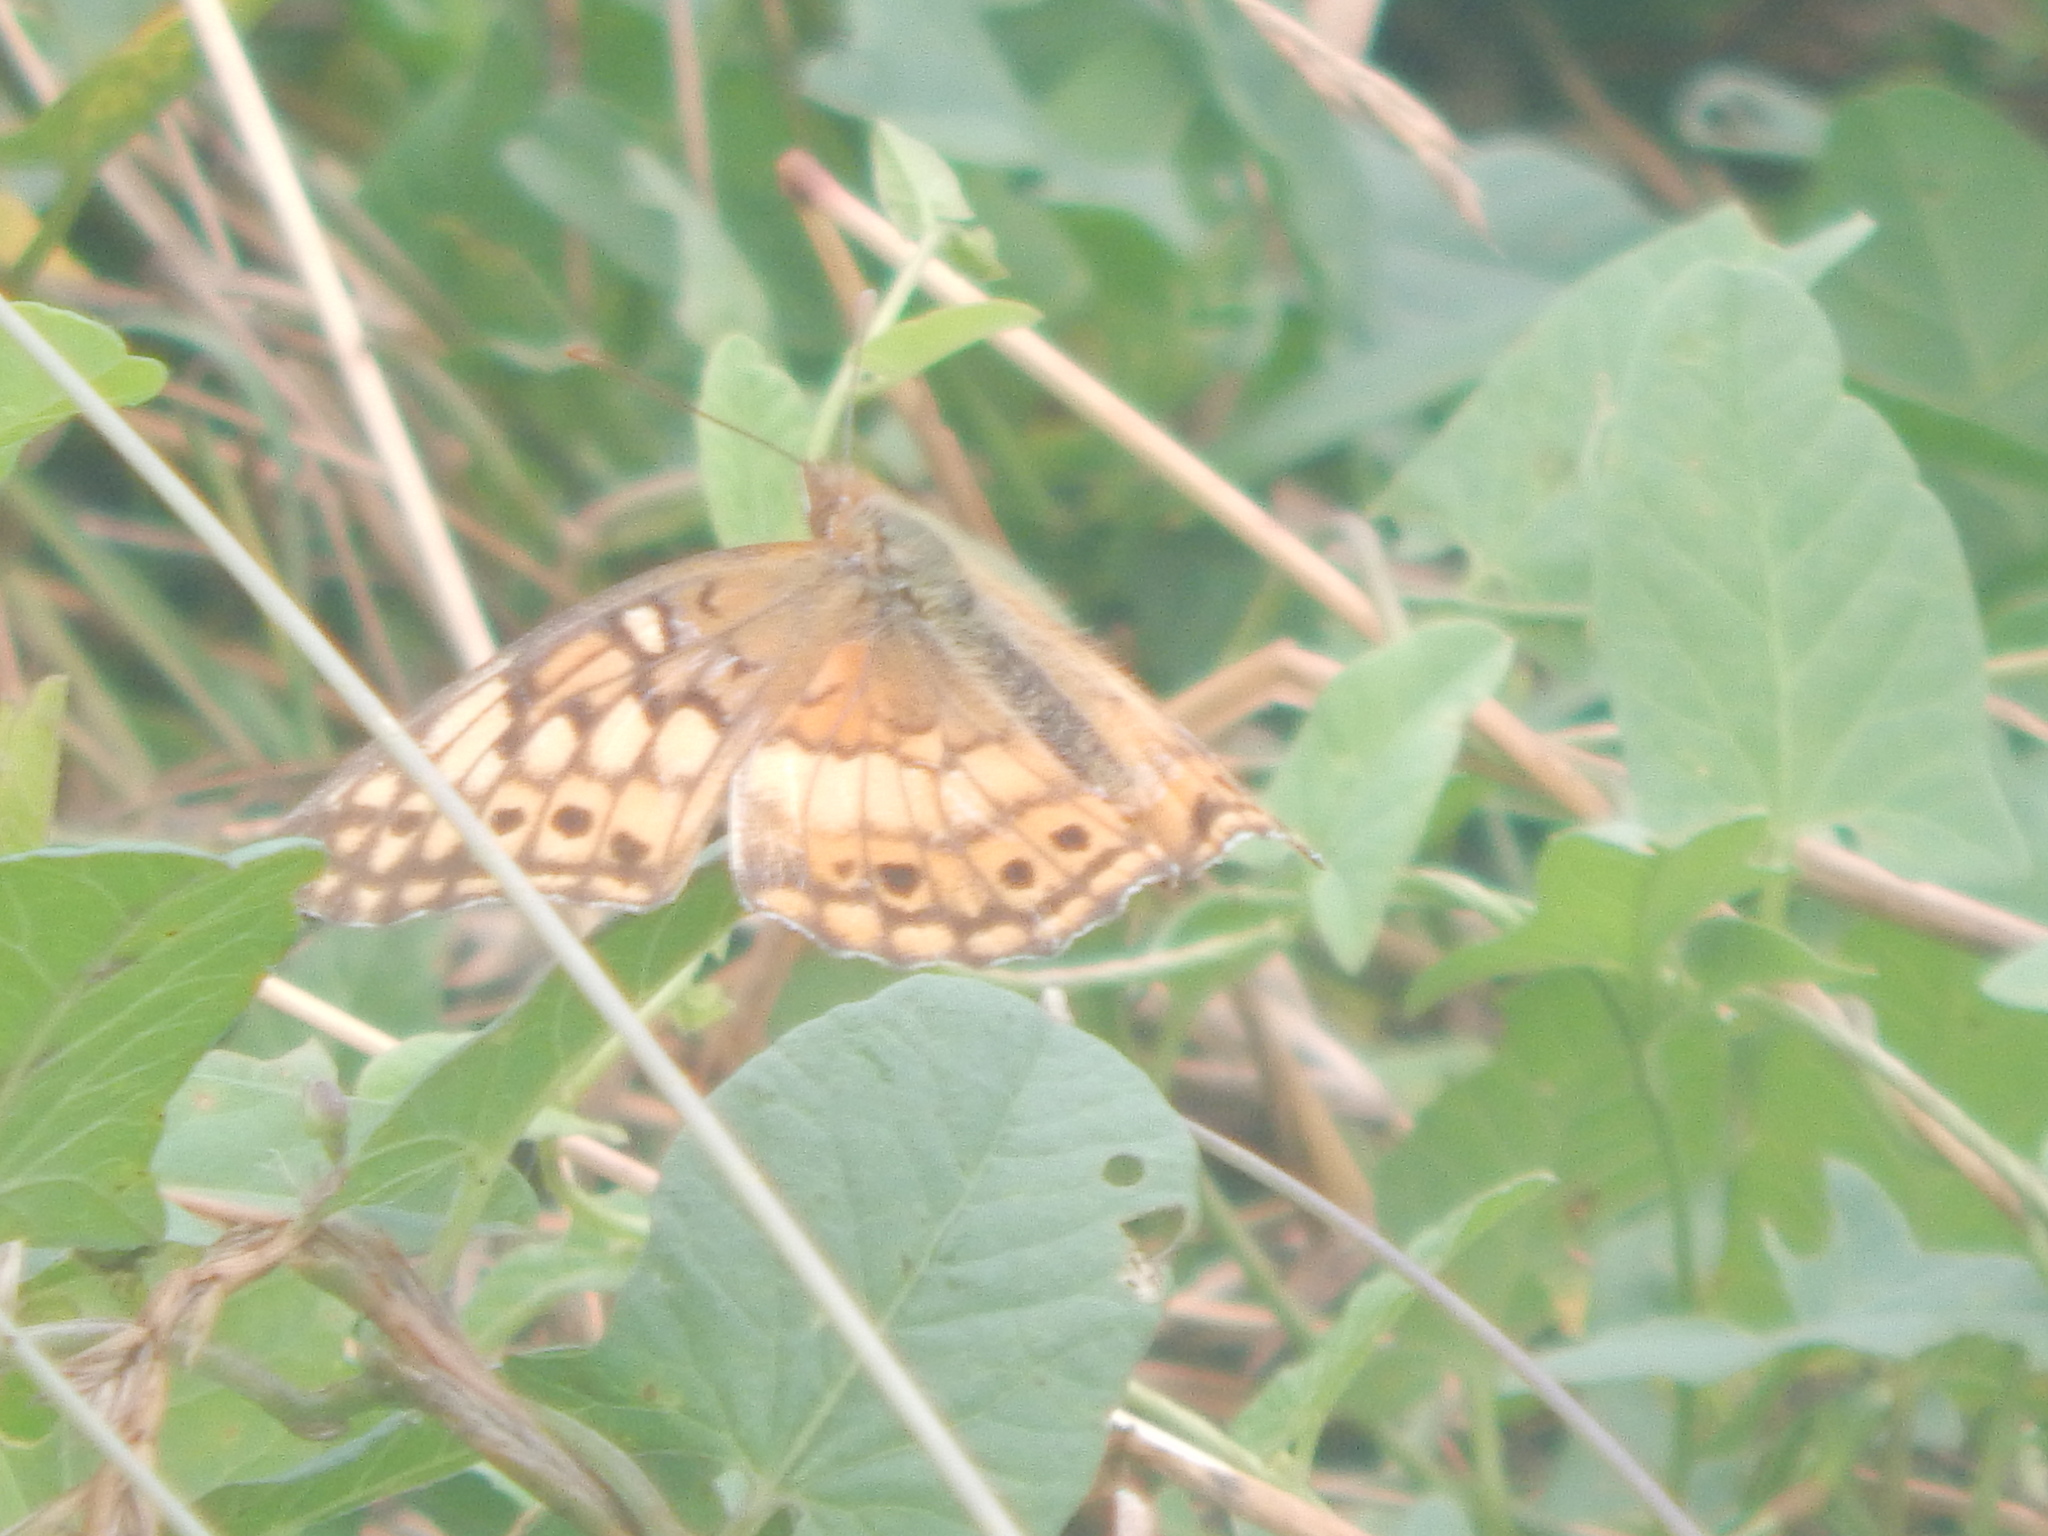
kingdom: Animalia
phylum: Arthropoda
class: Insecta
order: Lepidoptera
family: Nymphalidae
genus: Euptoieta
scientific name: Euptoieta claudia
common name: Variegated fritillary
